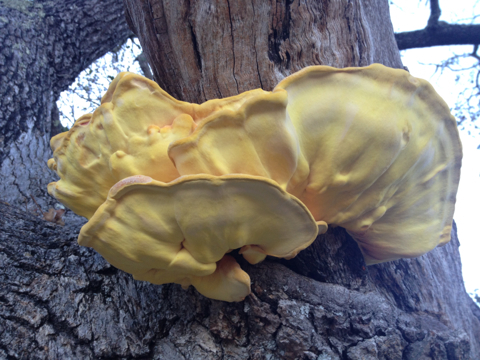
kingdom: Fungi
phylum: Basidiomycota
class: Agaricomycetes
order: Polyporales
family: Laetiporaceae
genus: Laetiporus
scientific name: Laetiporus gilbertsonii
